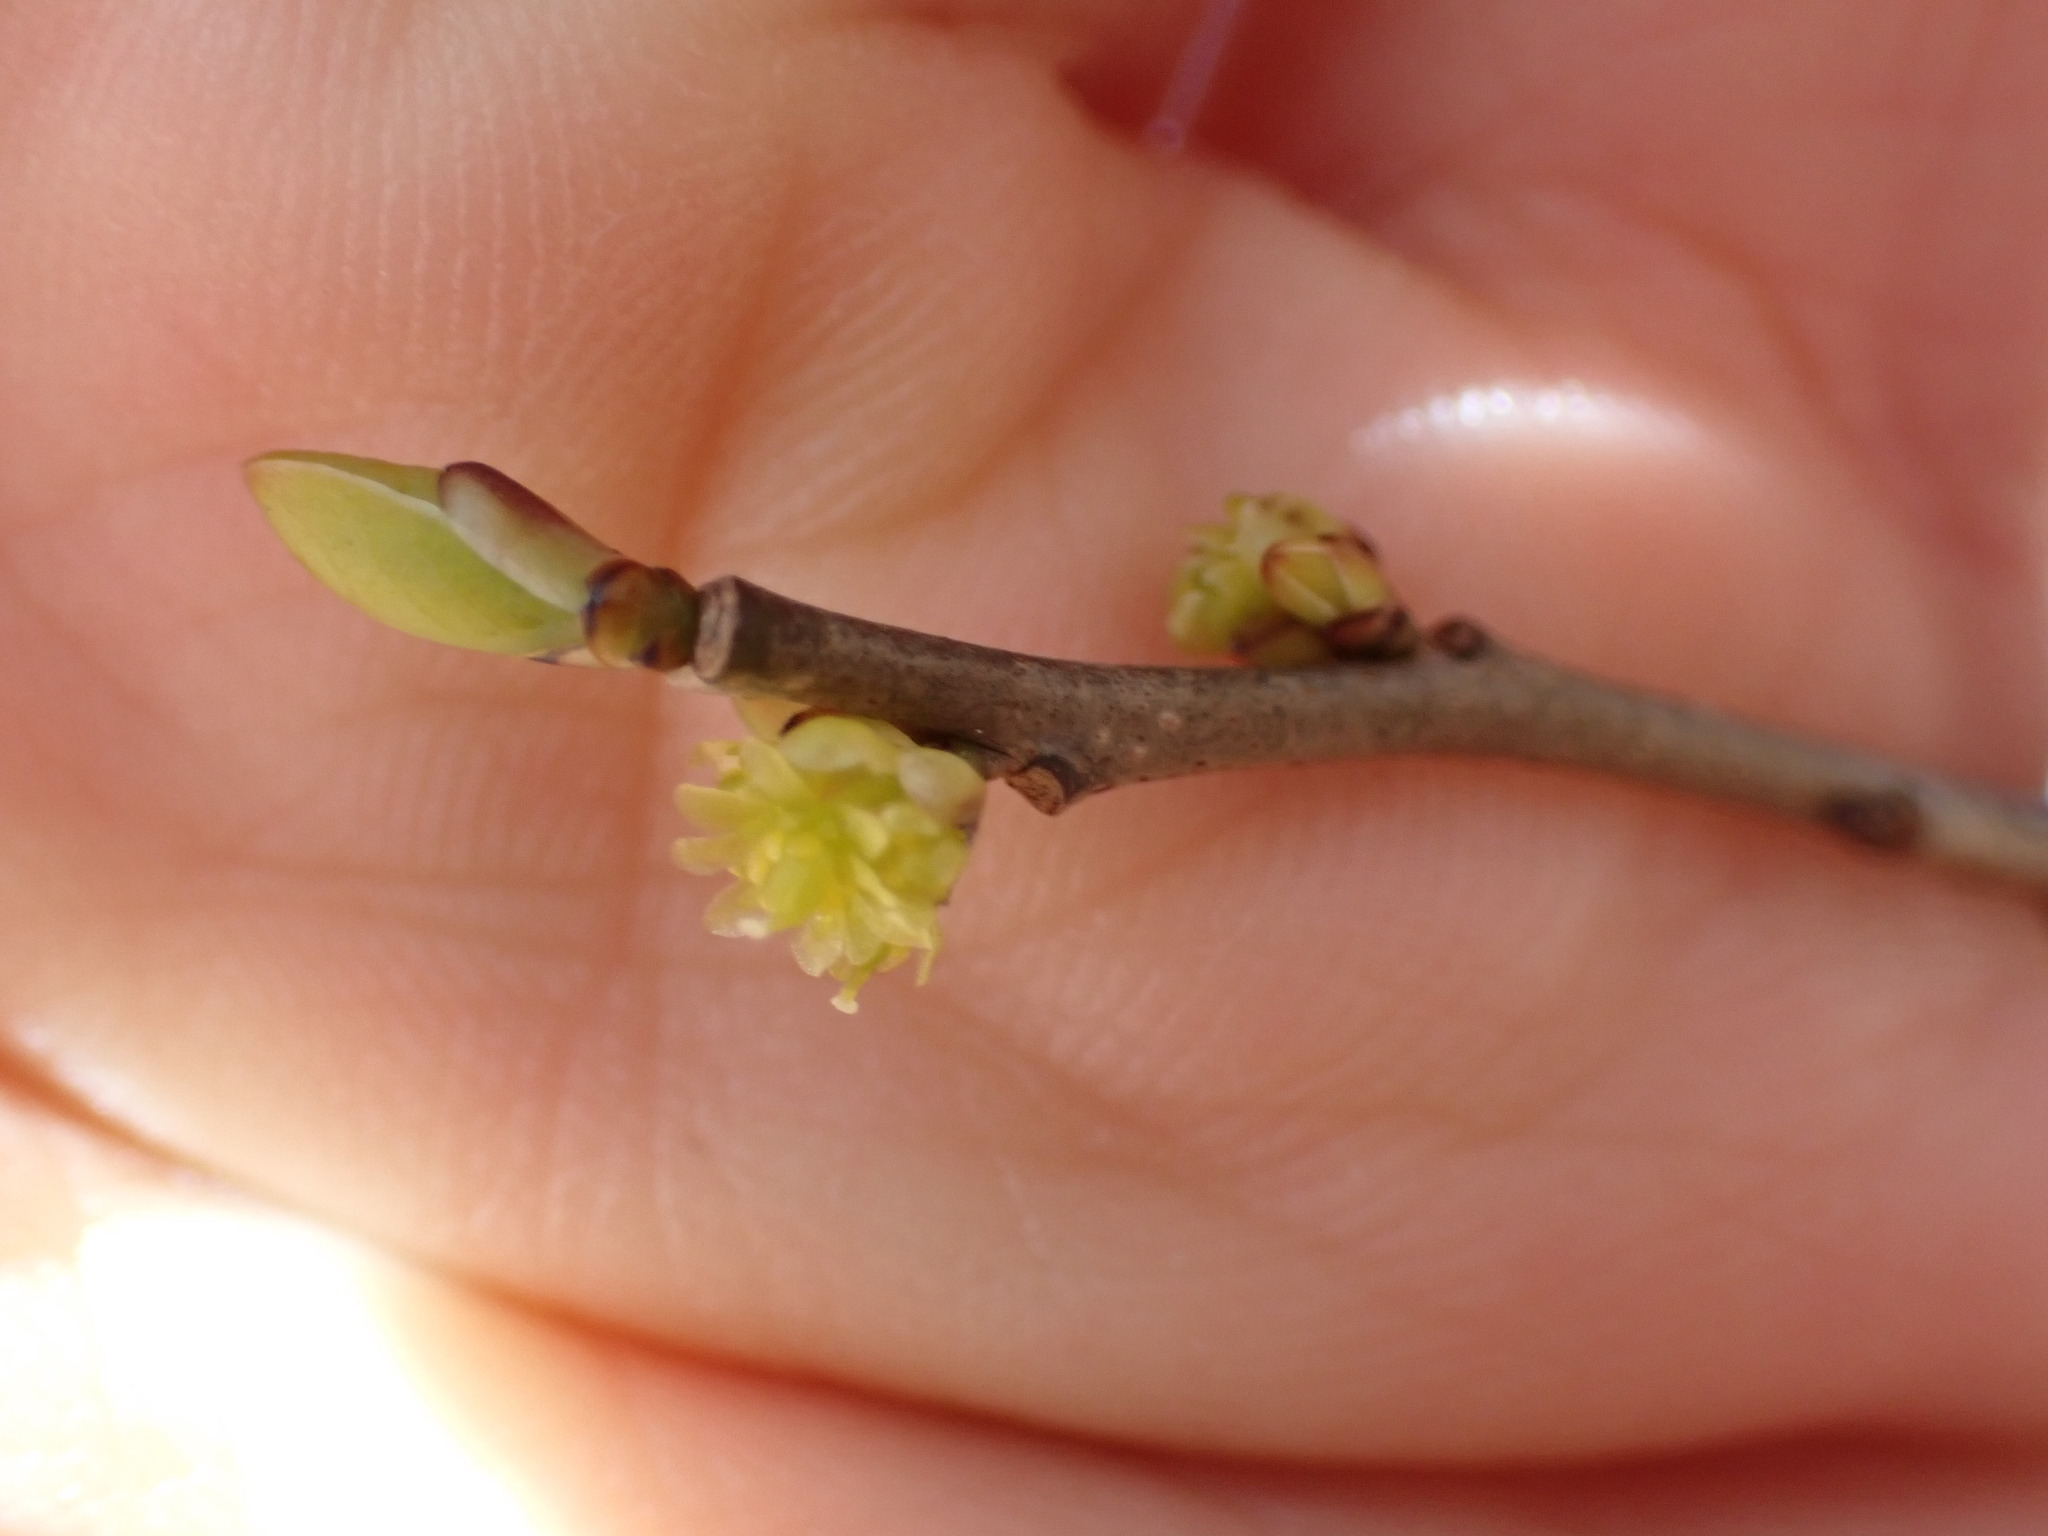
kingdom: Plantae
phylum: Tracheophyta
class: Magnoliopsida
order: Laurales
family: Lauraceae
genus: Lindera
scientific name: Lindera benzoin
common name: Spicebush
